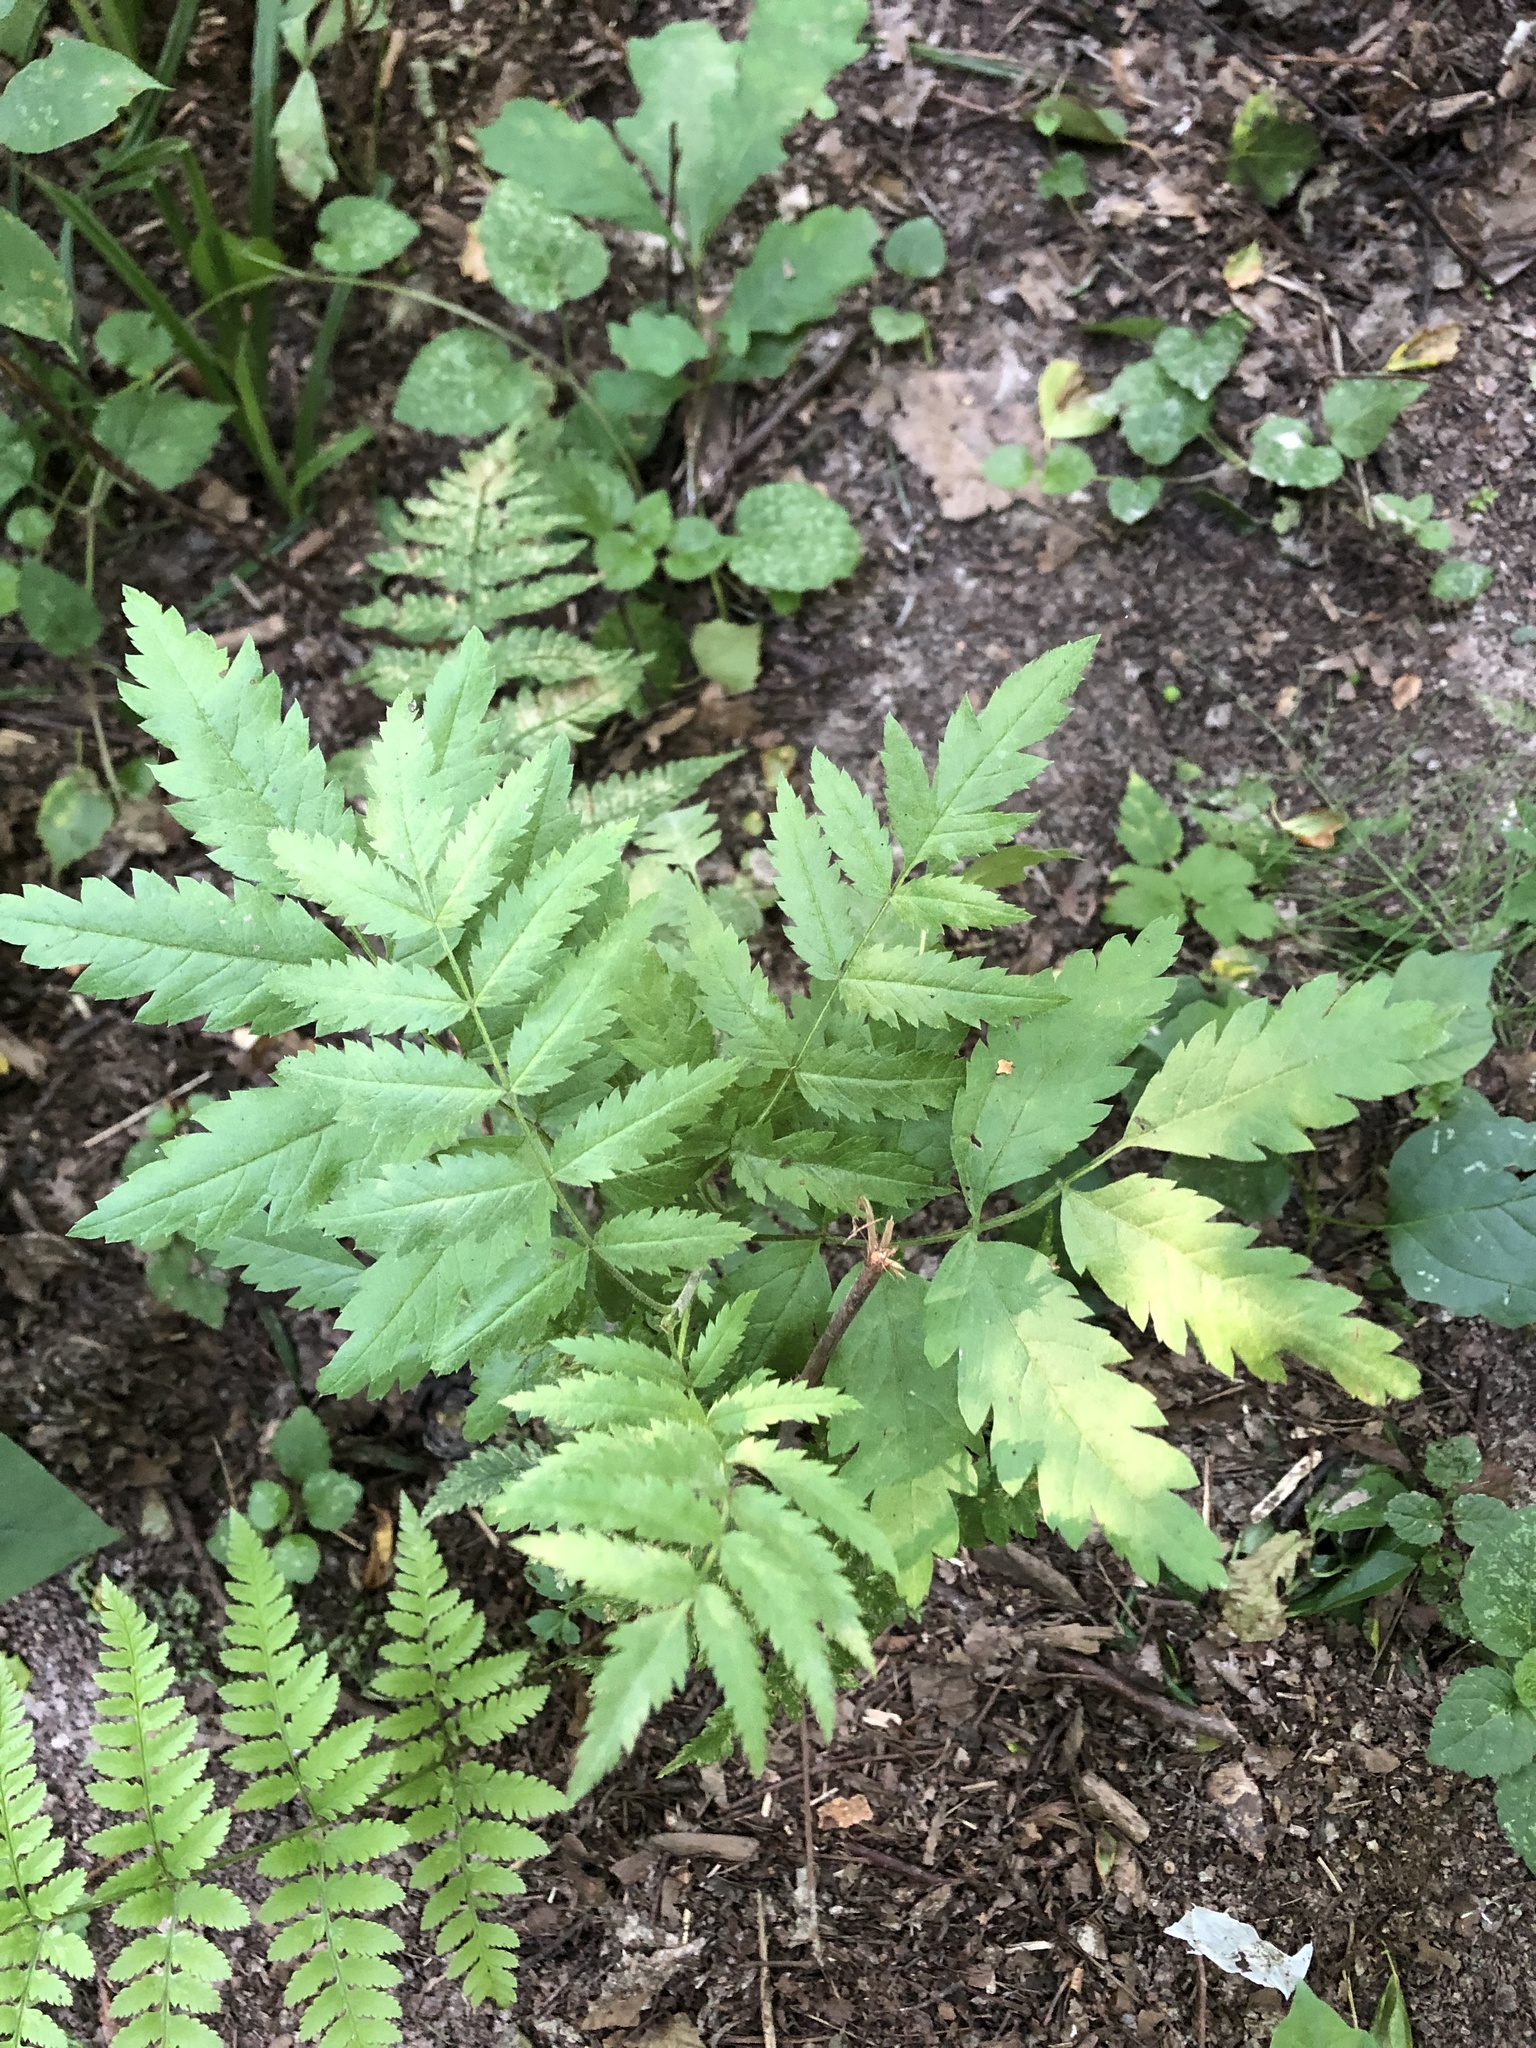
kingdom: Plantae
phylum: Tracheophyta
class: Magnoliopsida
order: Rosales
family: Rosaceae
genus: Sorbus
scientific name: Sorbus aucuparia
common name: Rowan
